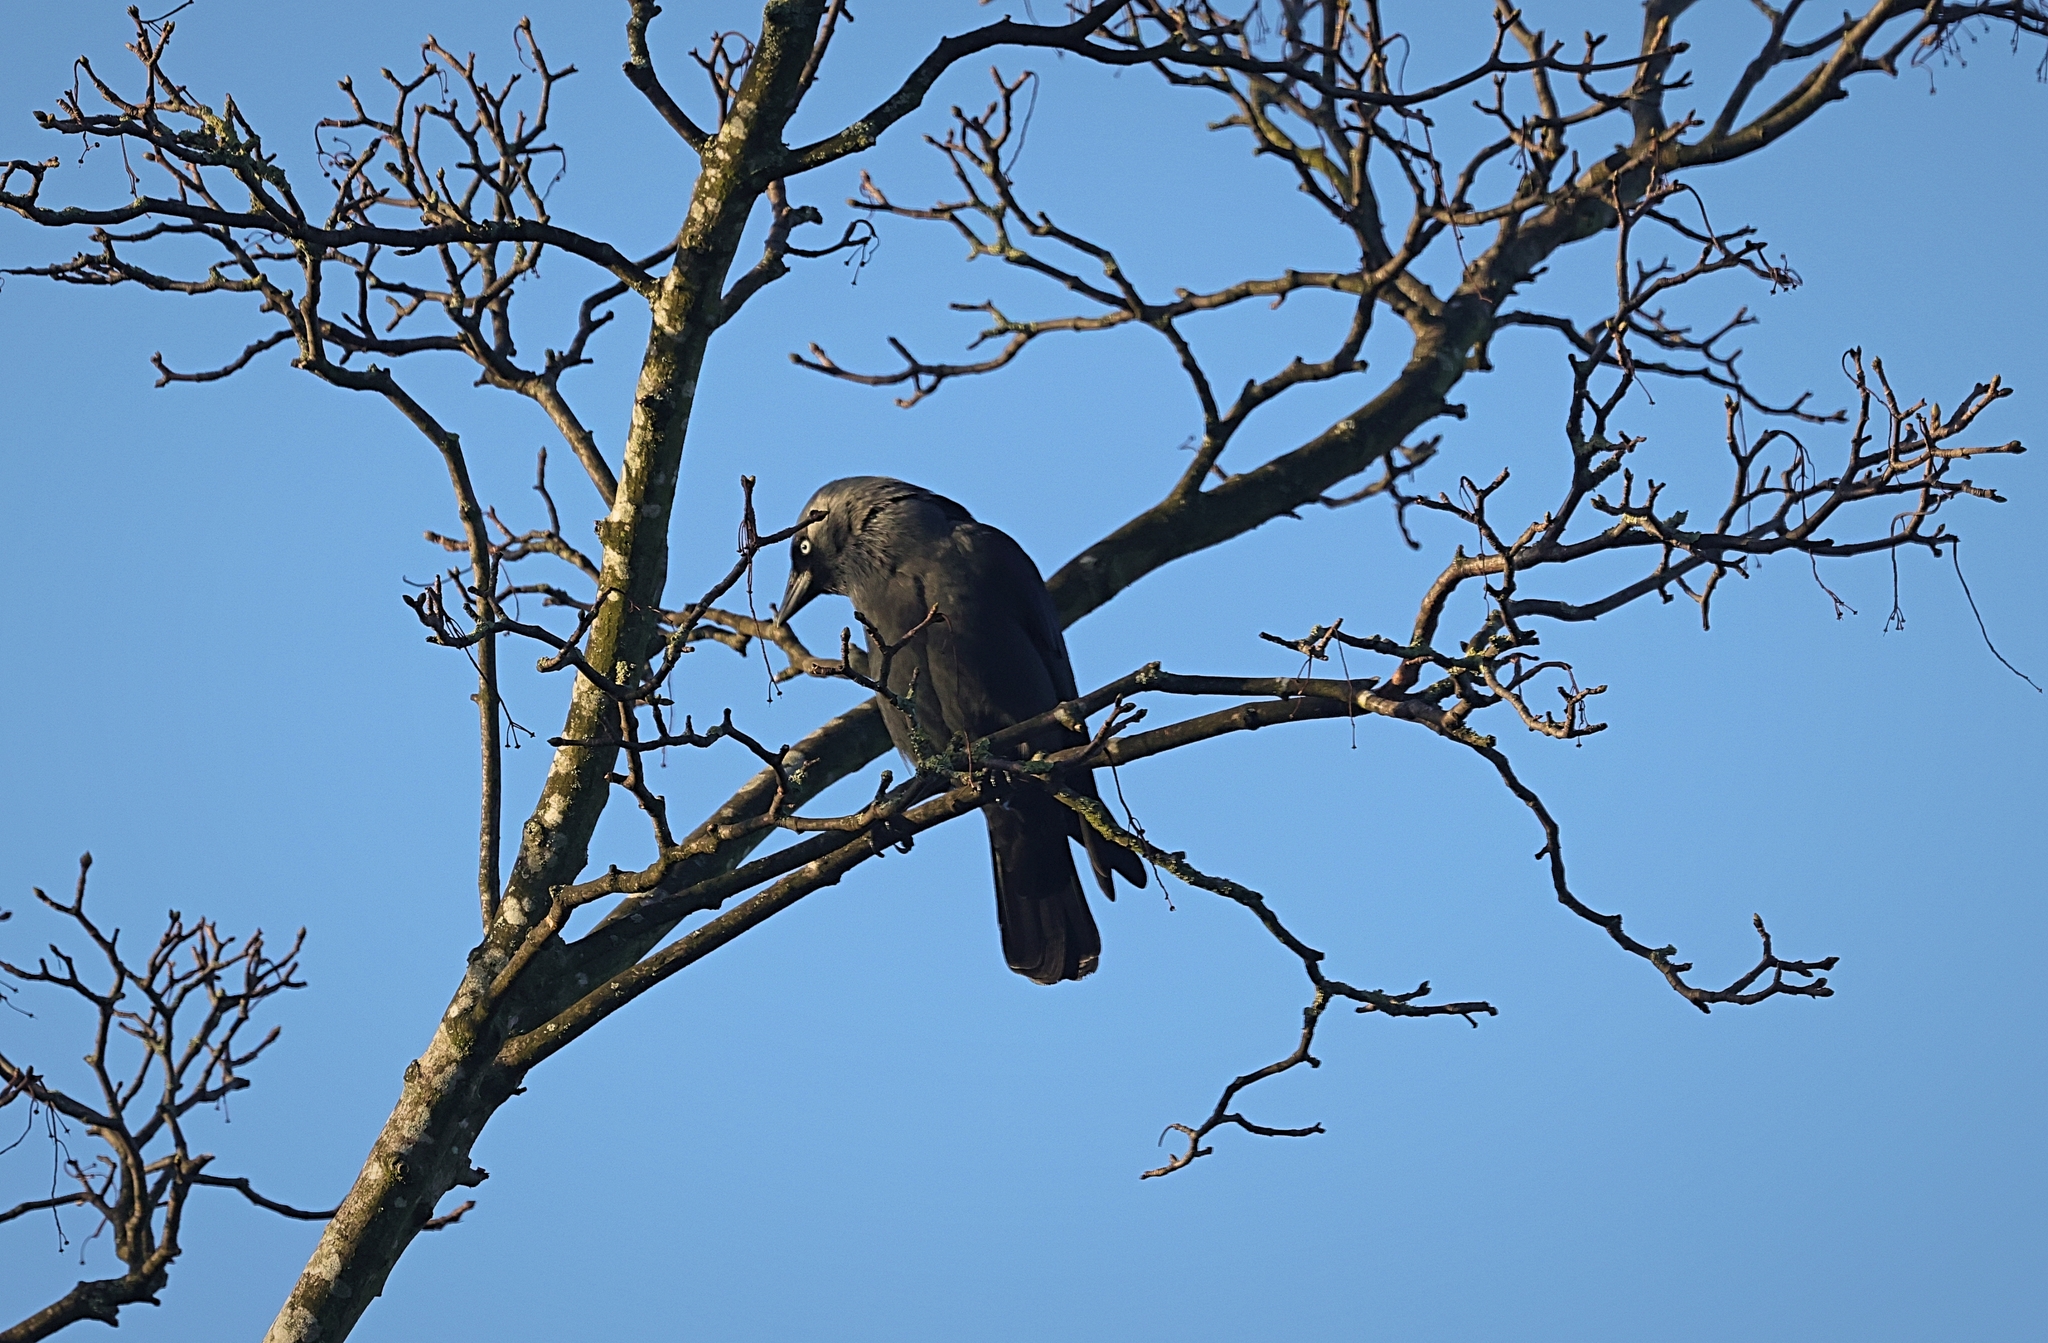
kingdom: Animalia
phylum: Chordata
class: Aves
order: Passeriformes
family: Corvidae
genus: Coloeus
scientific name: Coloeus monedula
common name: Western jackdaw
